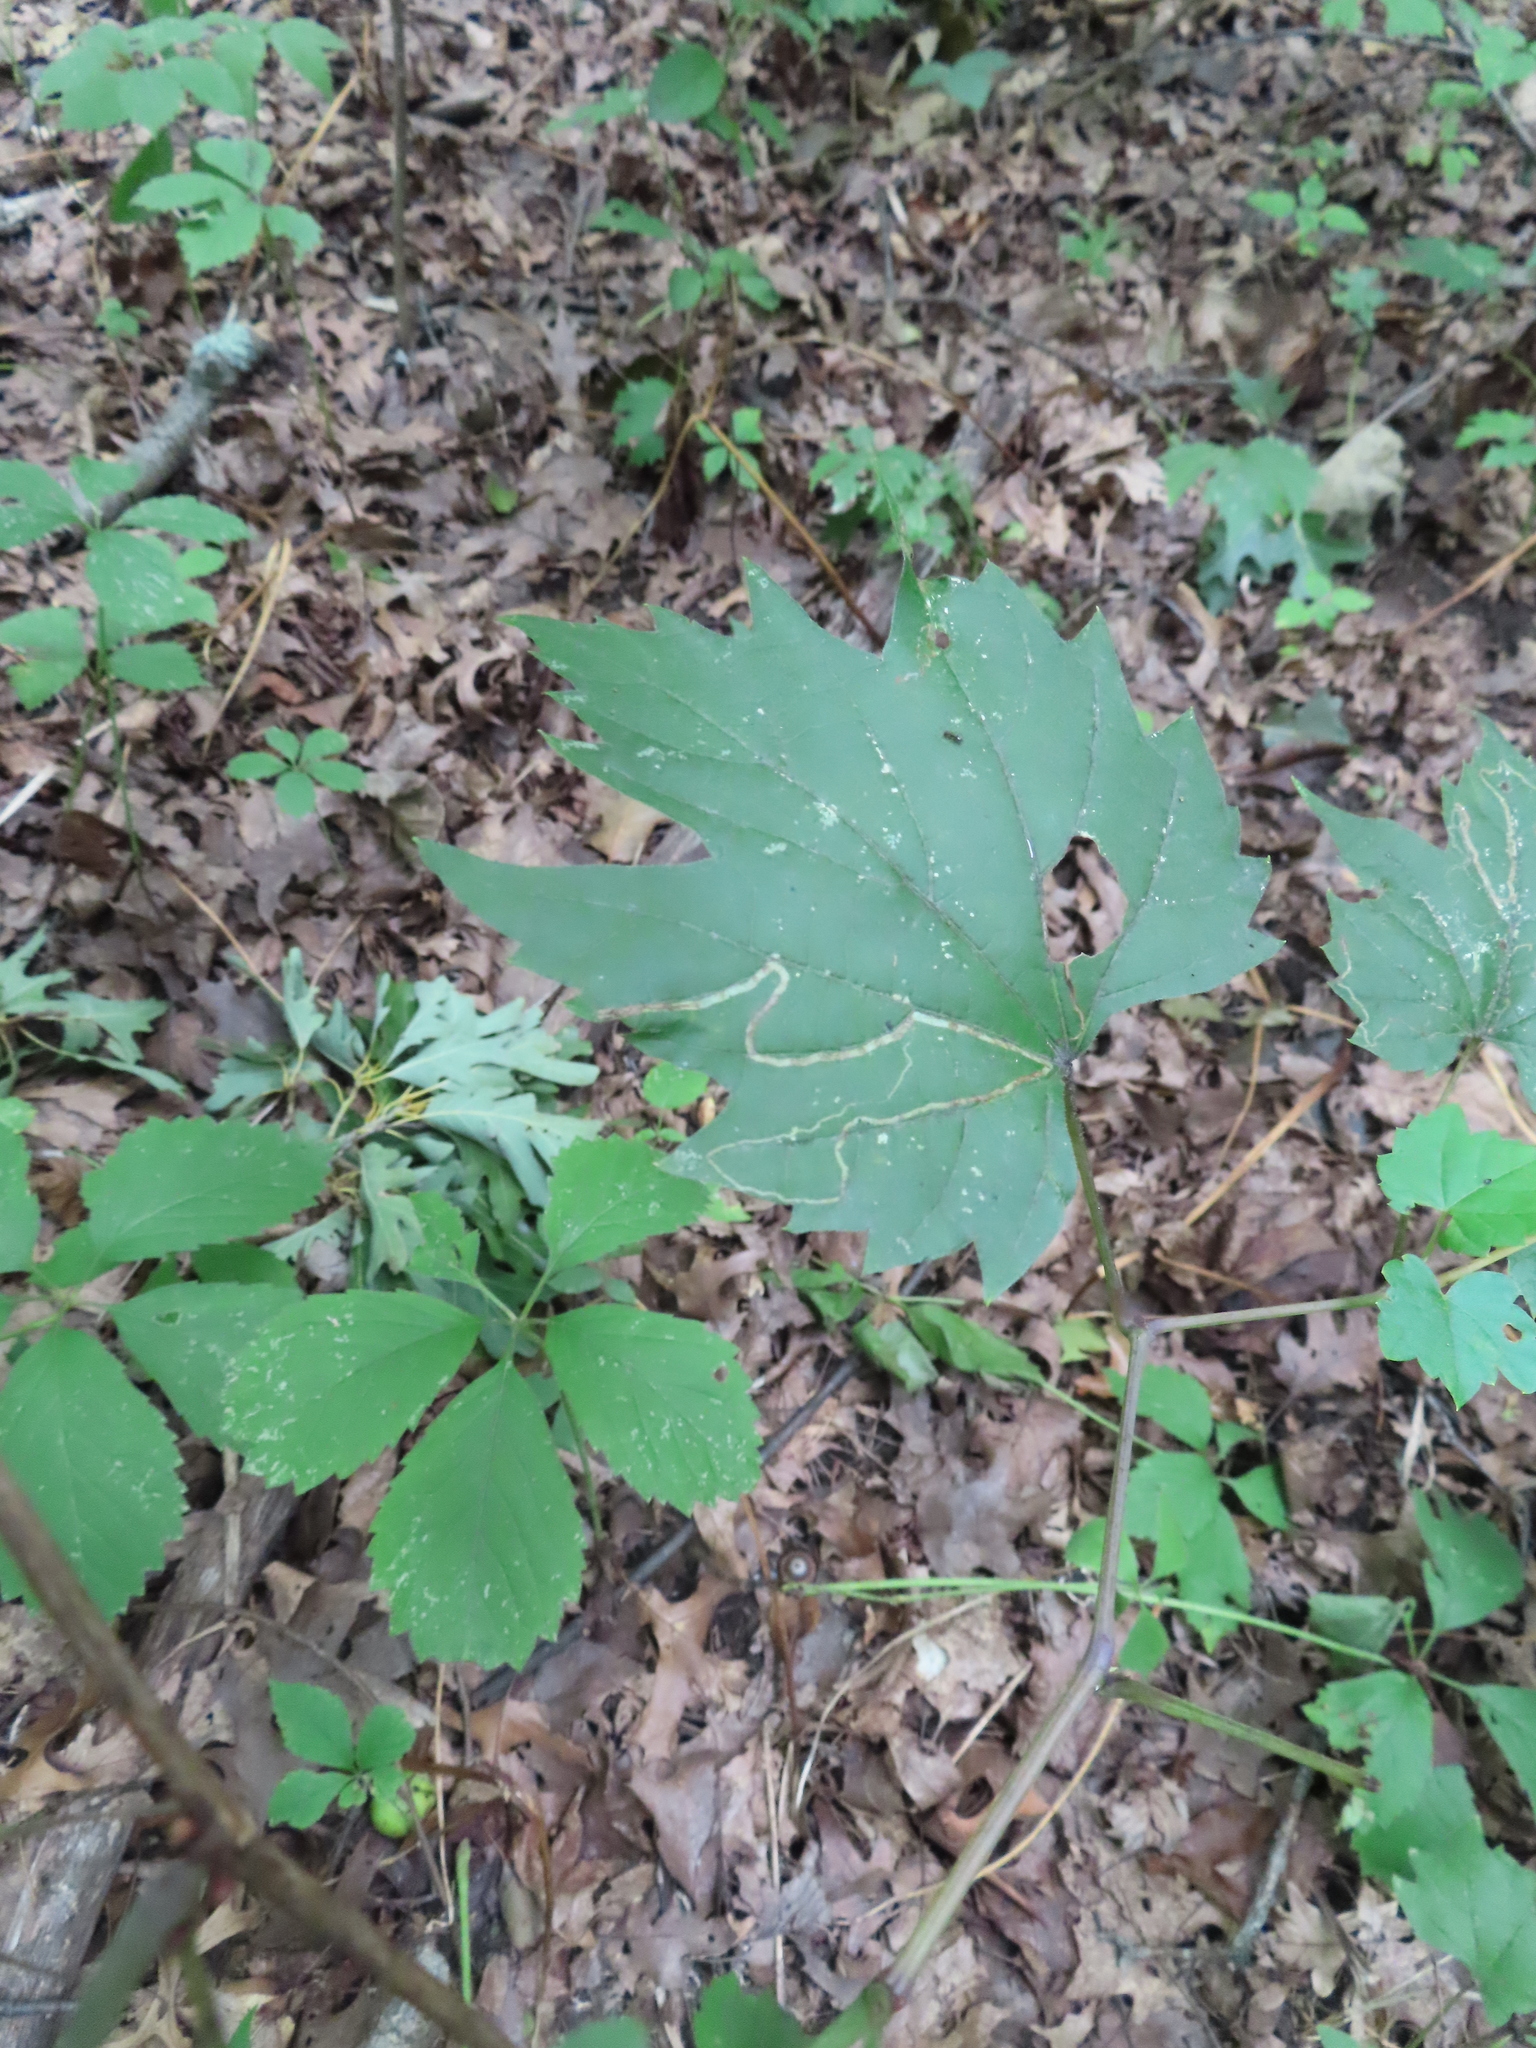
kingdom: Animalia
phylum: Arthropoda
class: Insecta
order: Lepidoptera
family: Gracillariidae
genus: Phyllocnistis
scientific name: Phyllocnistis vitifoliella
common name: Grape leaf-miner moth
